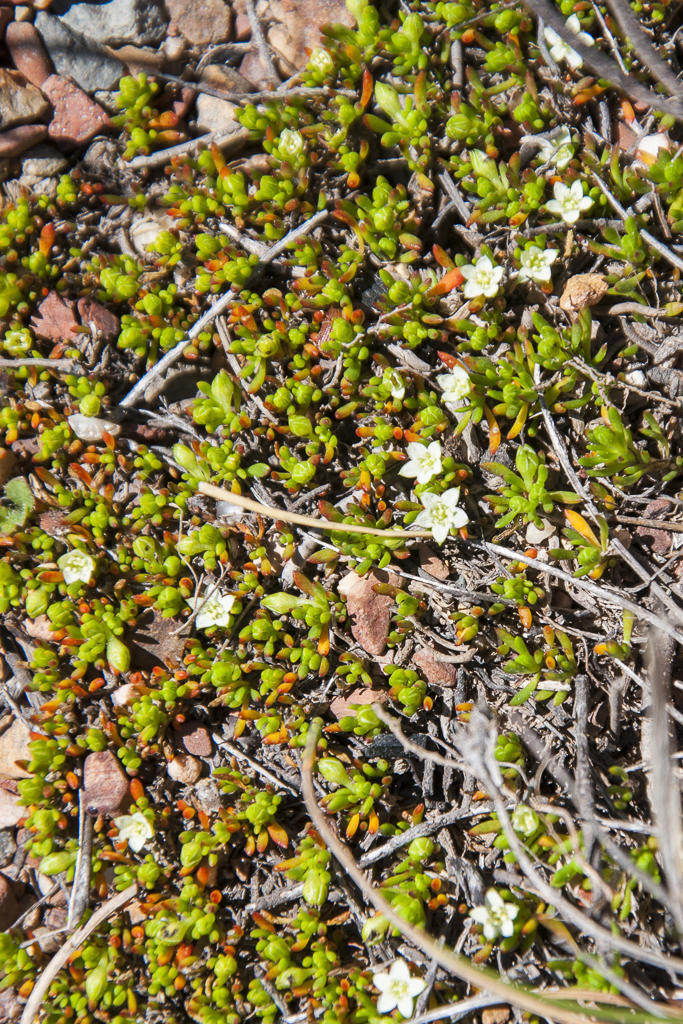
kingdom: Plantae
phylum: Tracheophyta
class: Magnoliopsida
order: Caryophyllales
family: Aizoaceae
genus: Acrosanthes
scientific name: Acrosanthes parviflora
